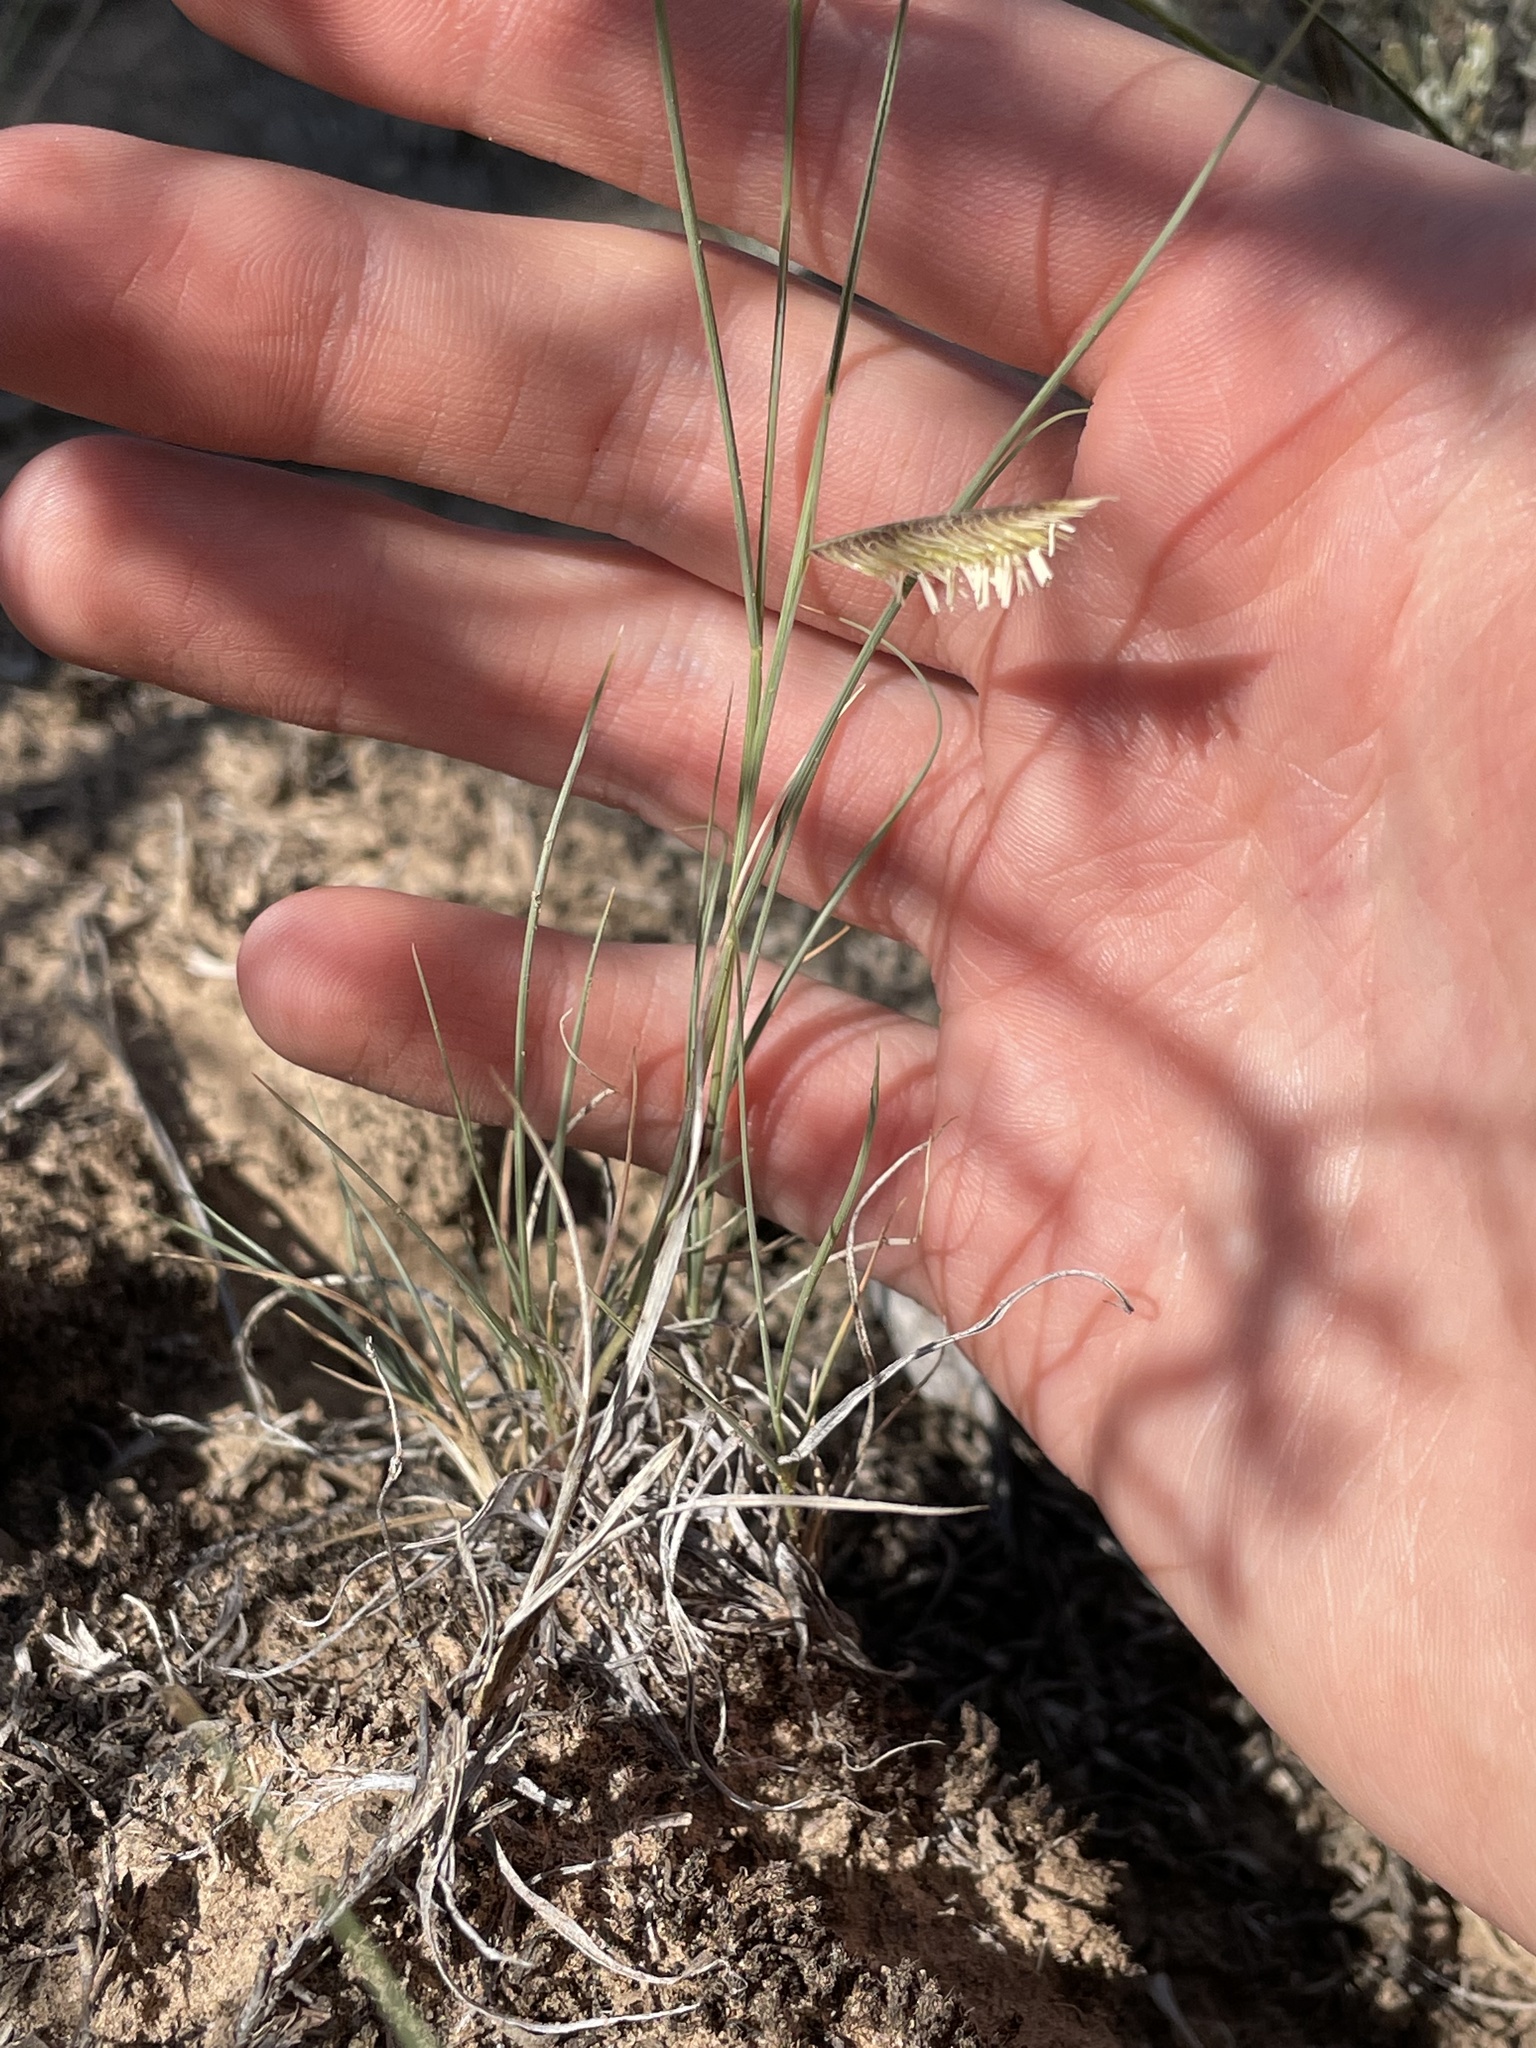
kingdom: Plantae
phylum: Tracheophyta
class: Liliopsida
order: Poales
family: Poaceae
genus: Bouteloua
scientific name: Bouteloua gracilis
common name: Blue grama
